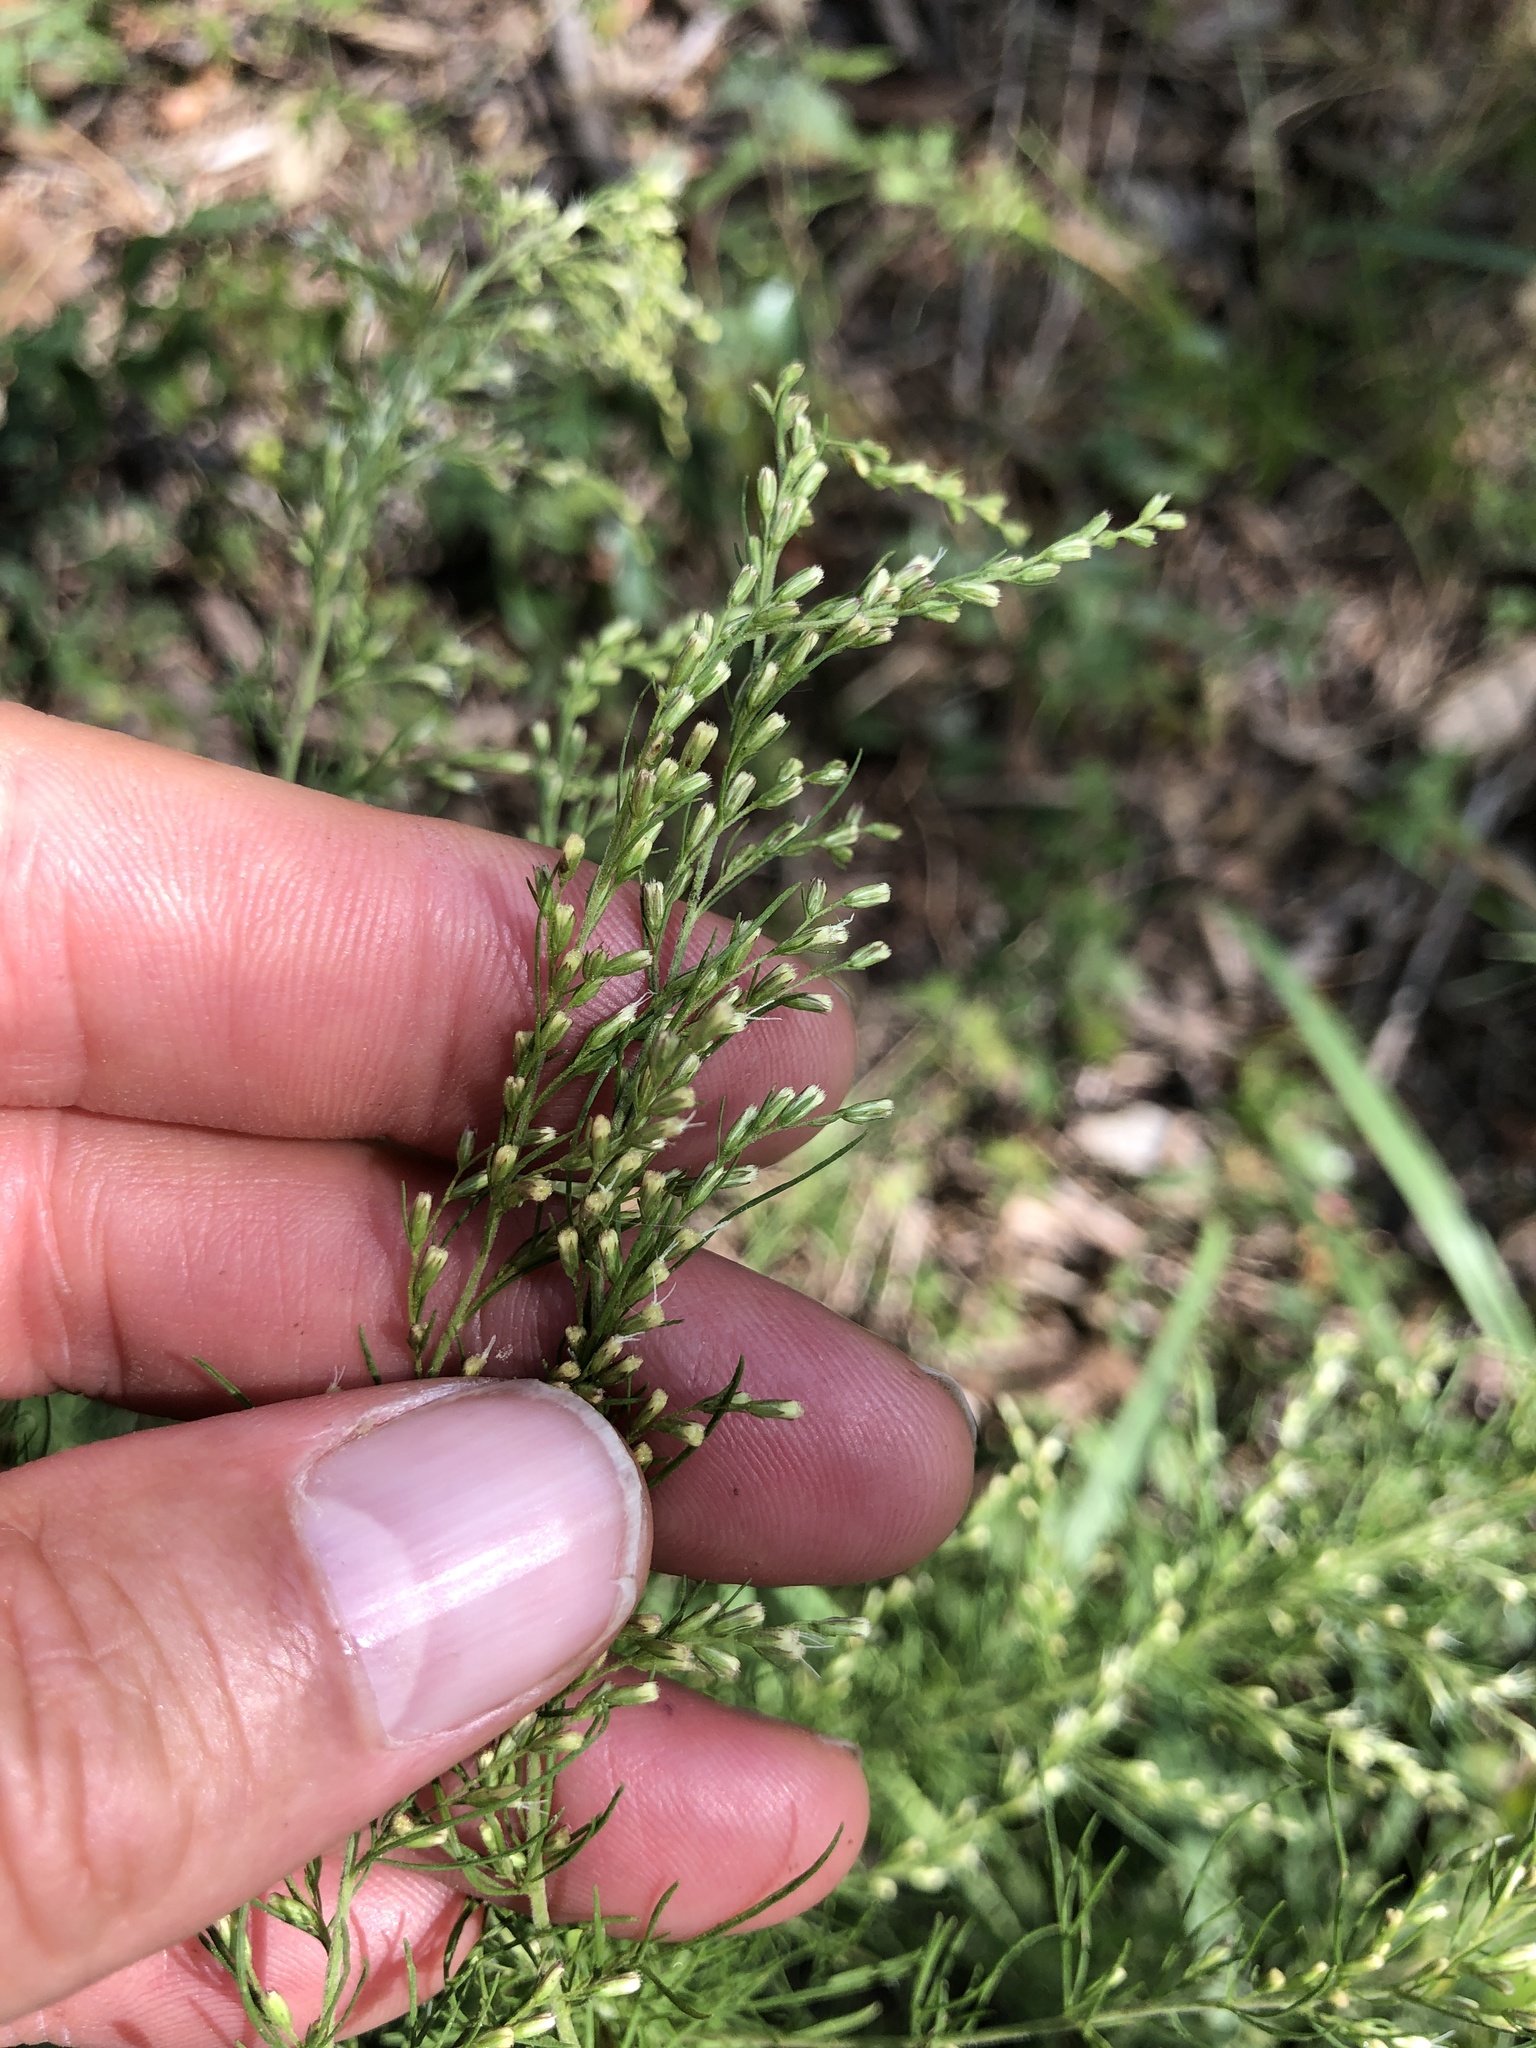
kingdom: Plantae
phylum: Tracheophyta
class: Magnoliopsida
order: Asterales
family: Asteraceae
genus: Eupatorium
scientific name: Eupatorium capillifolium
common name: Dog-fennel
